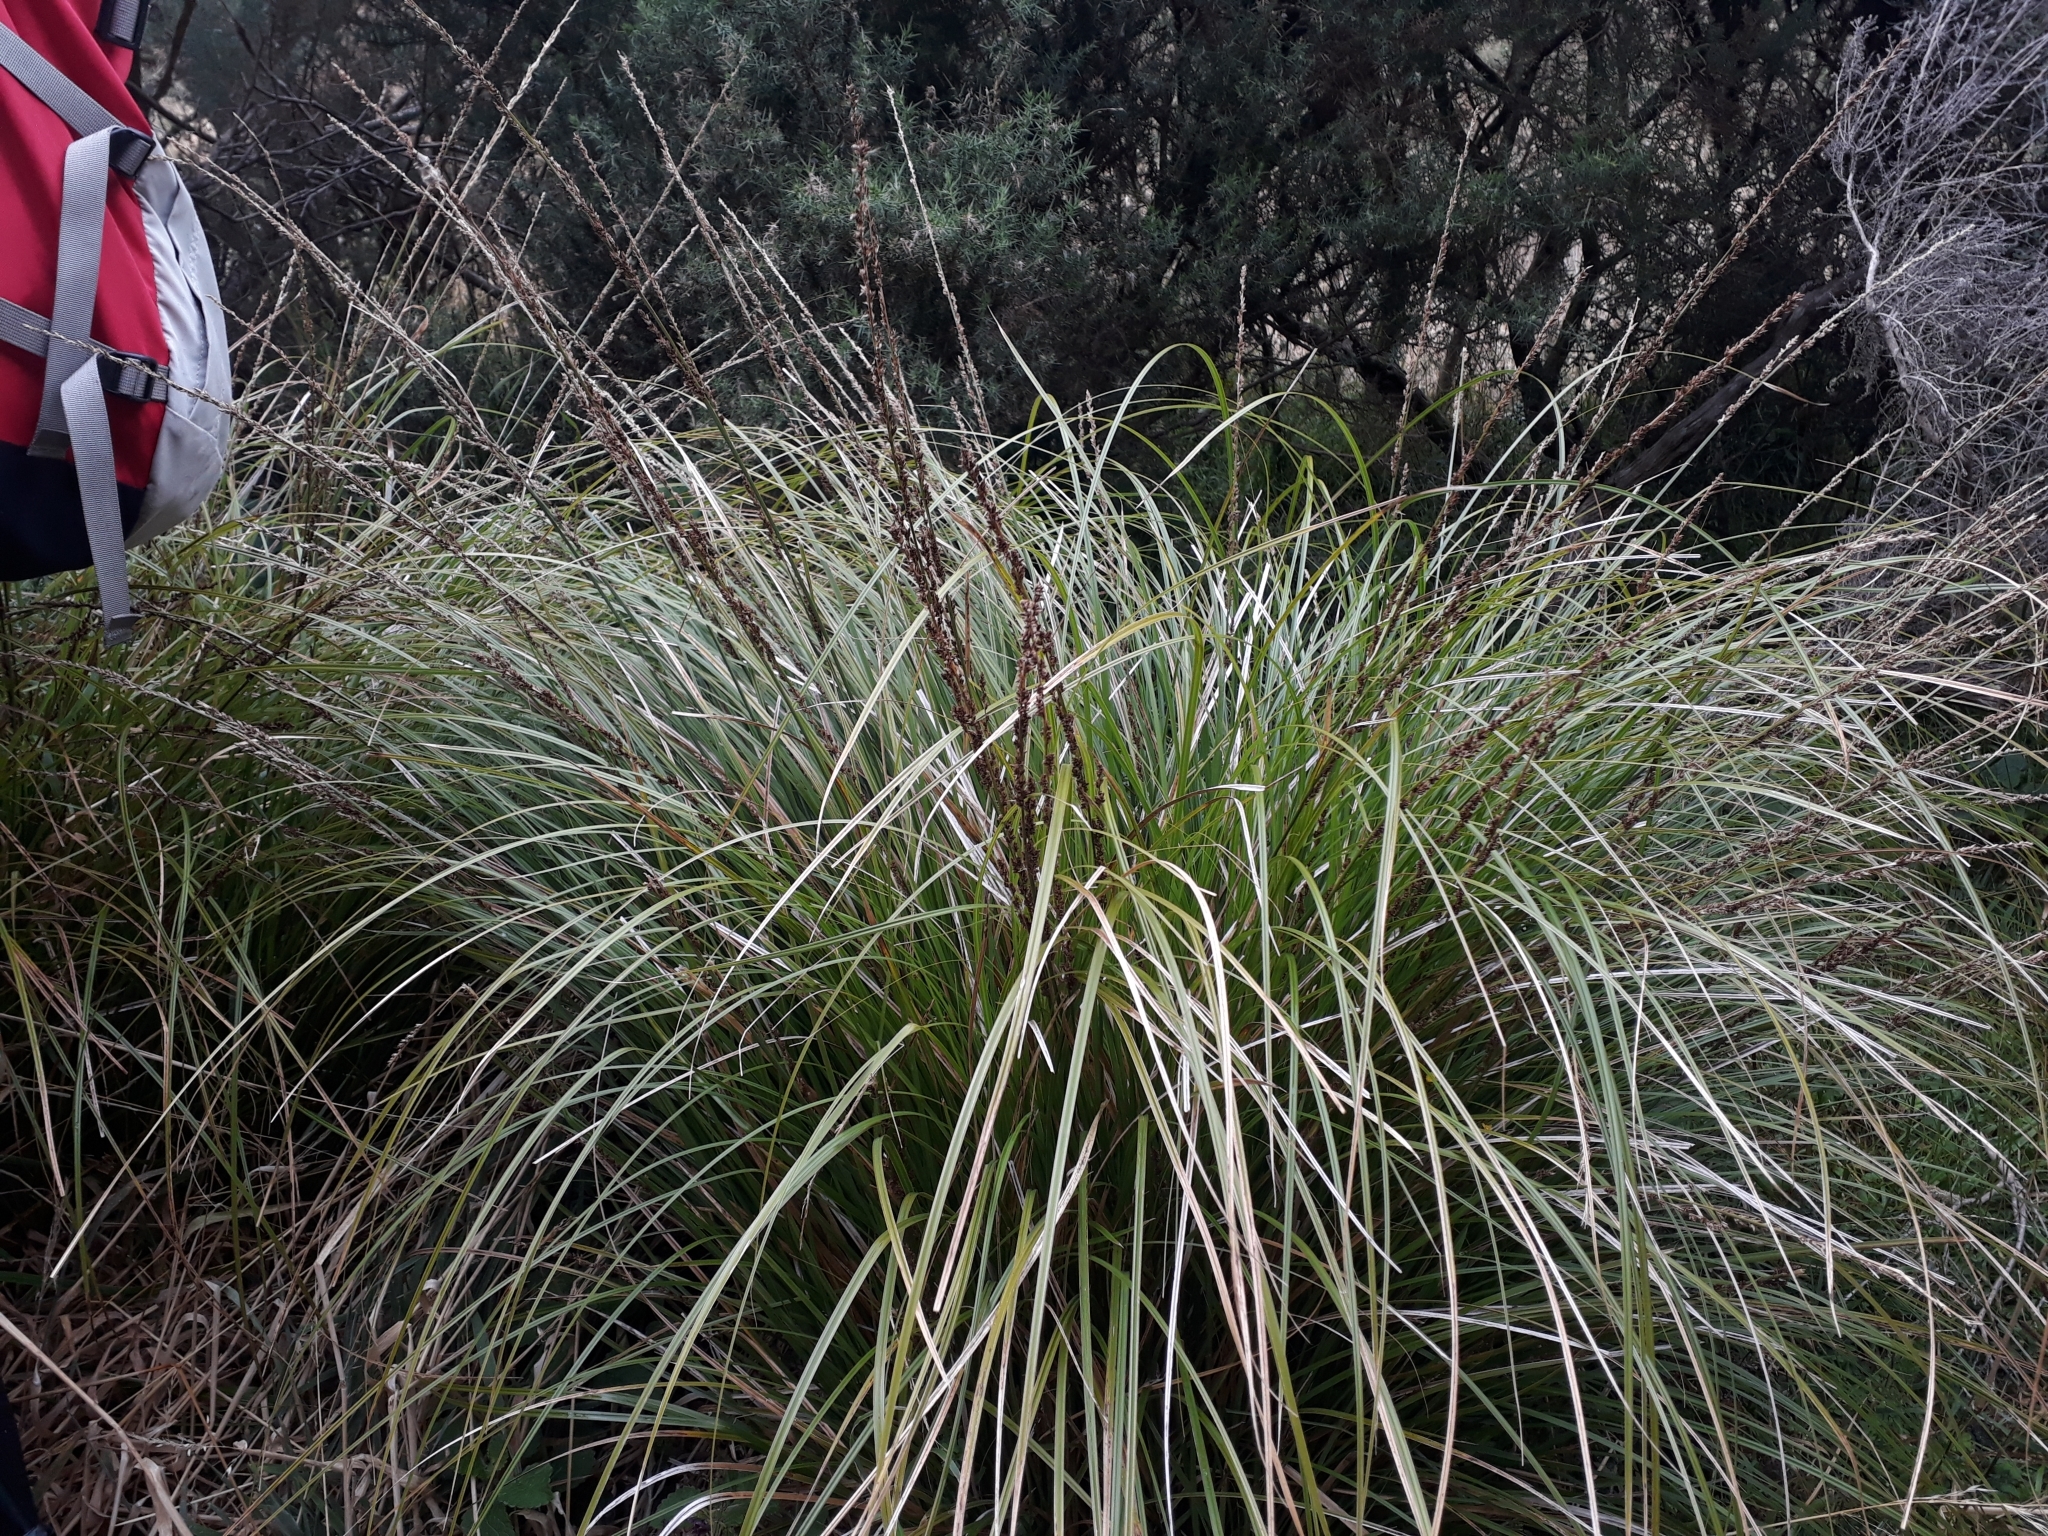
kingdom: Plantae
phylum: Tracheophyta
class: Liliopsida
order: Poales
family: Cyperaceae
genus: Carex
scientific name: Carex virgata
